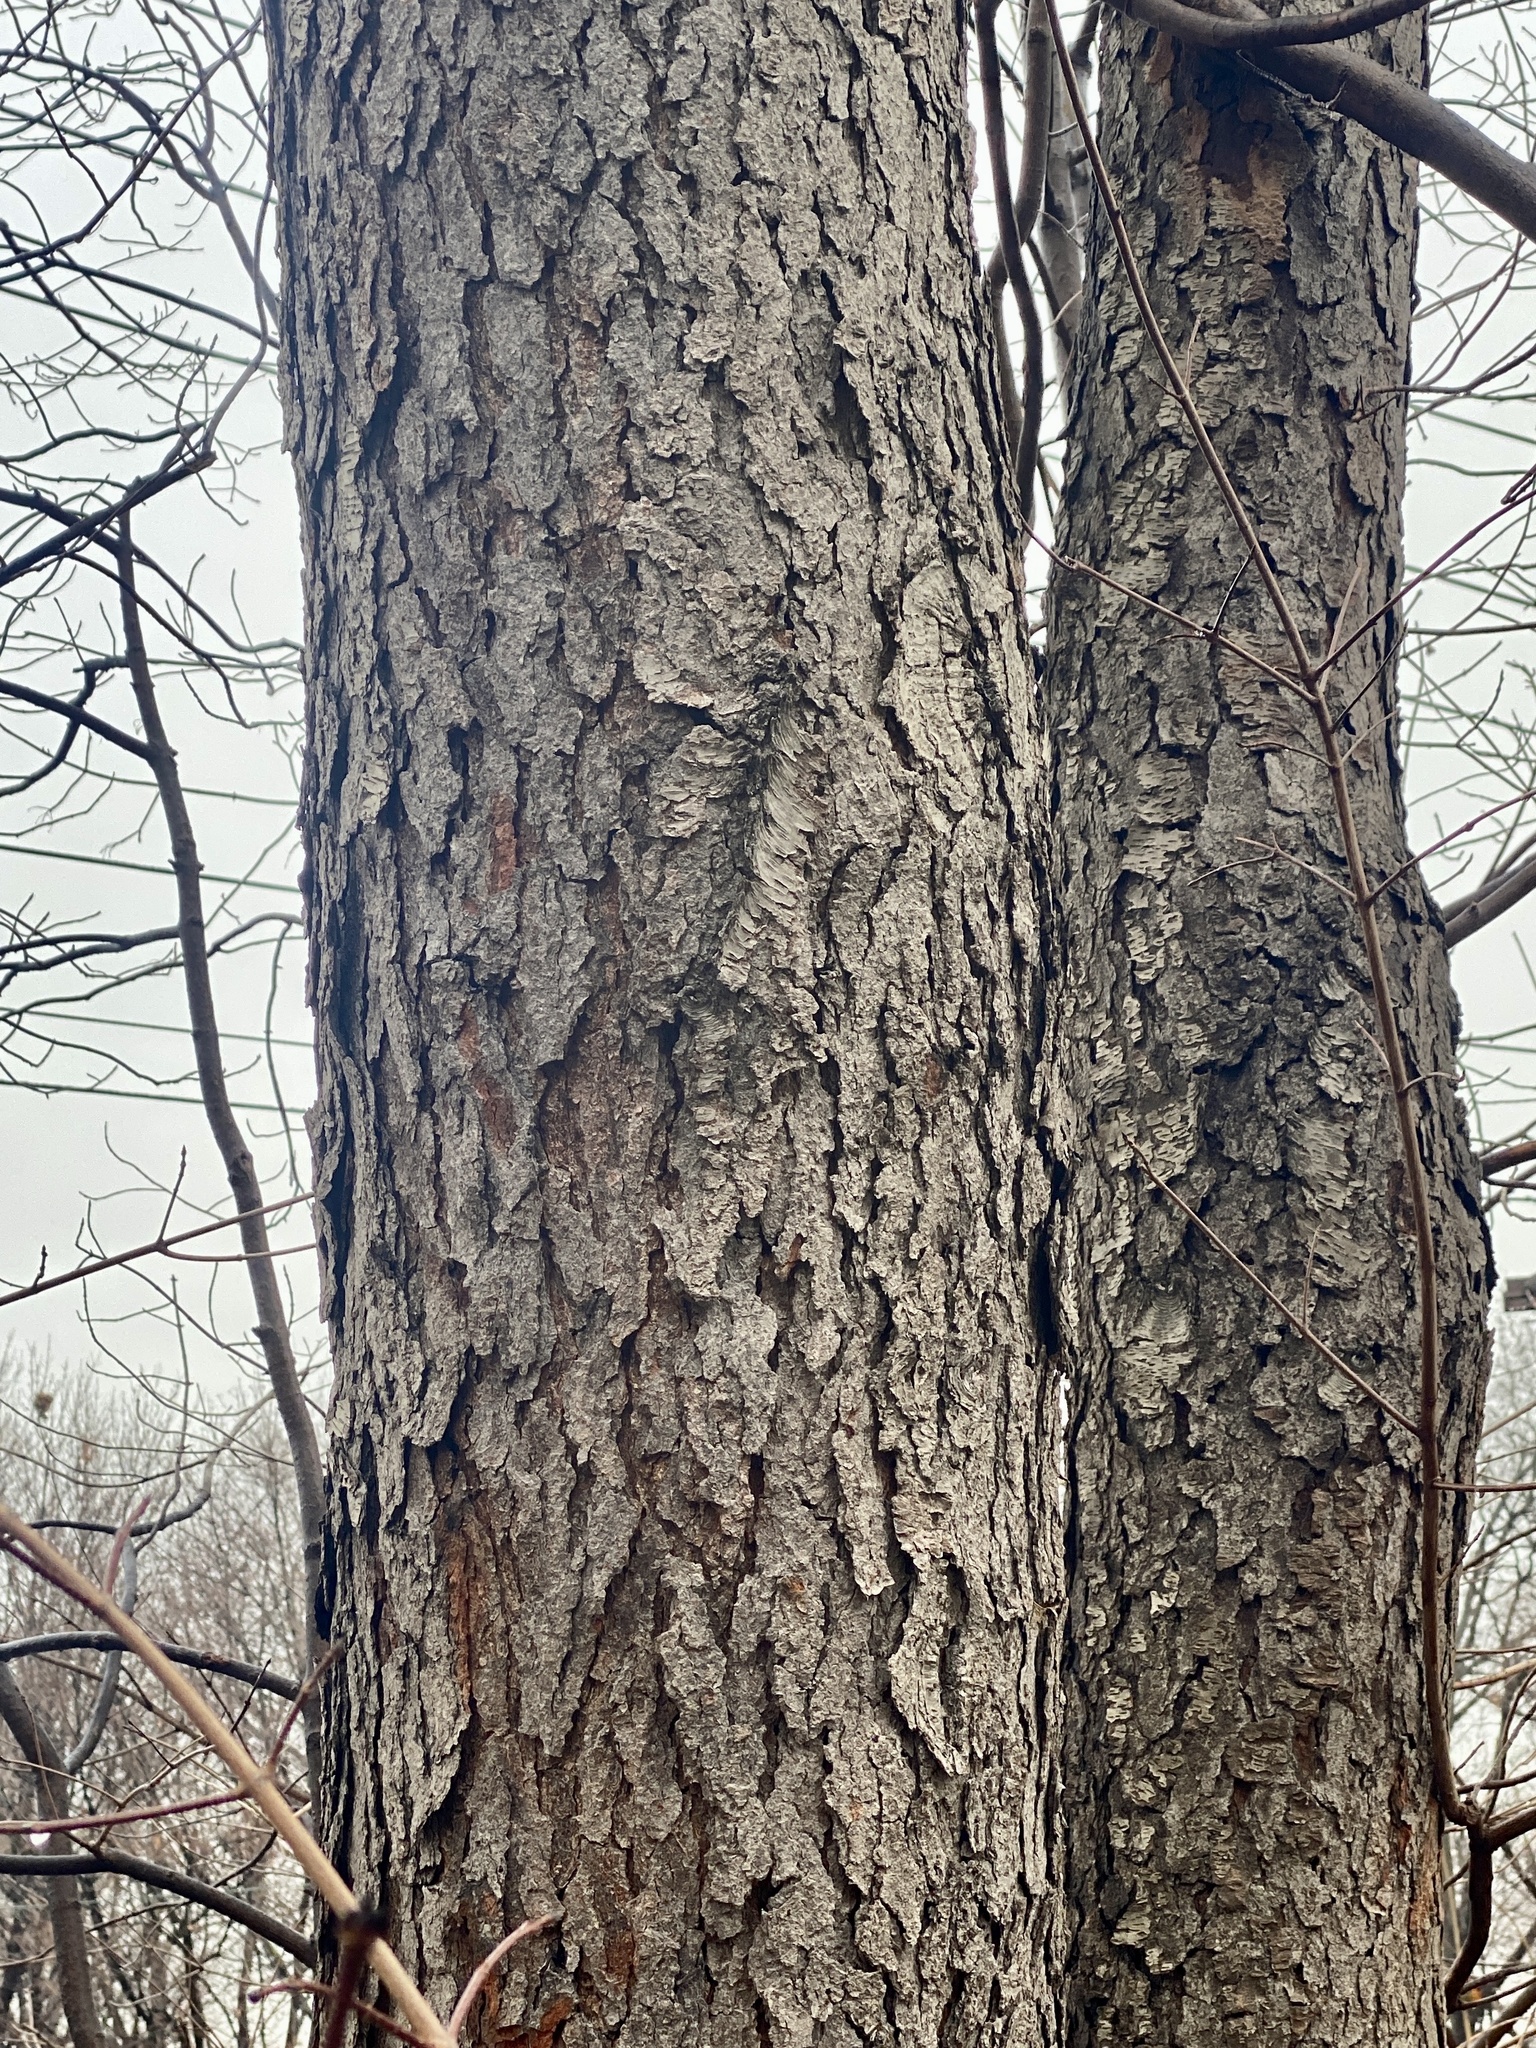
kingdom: Plantae
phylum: Tracheophyta
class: Magnoliopsida
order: Rosales
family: Rosaceae
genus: Prunus
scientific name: Prunus serotina
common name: Black cherry
